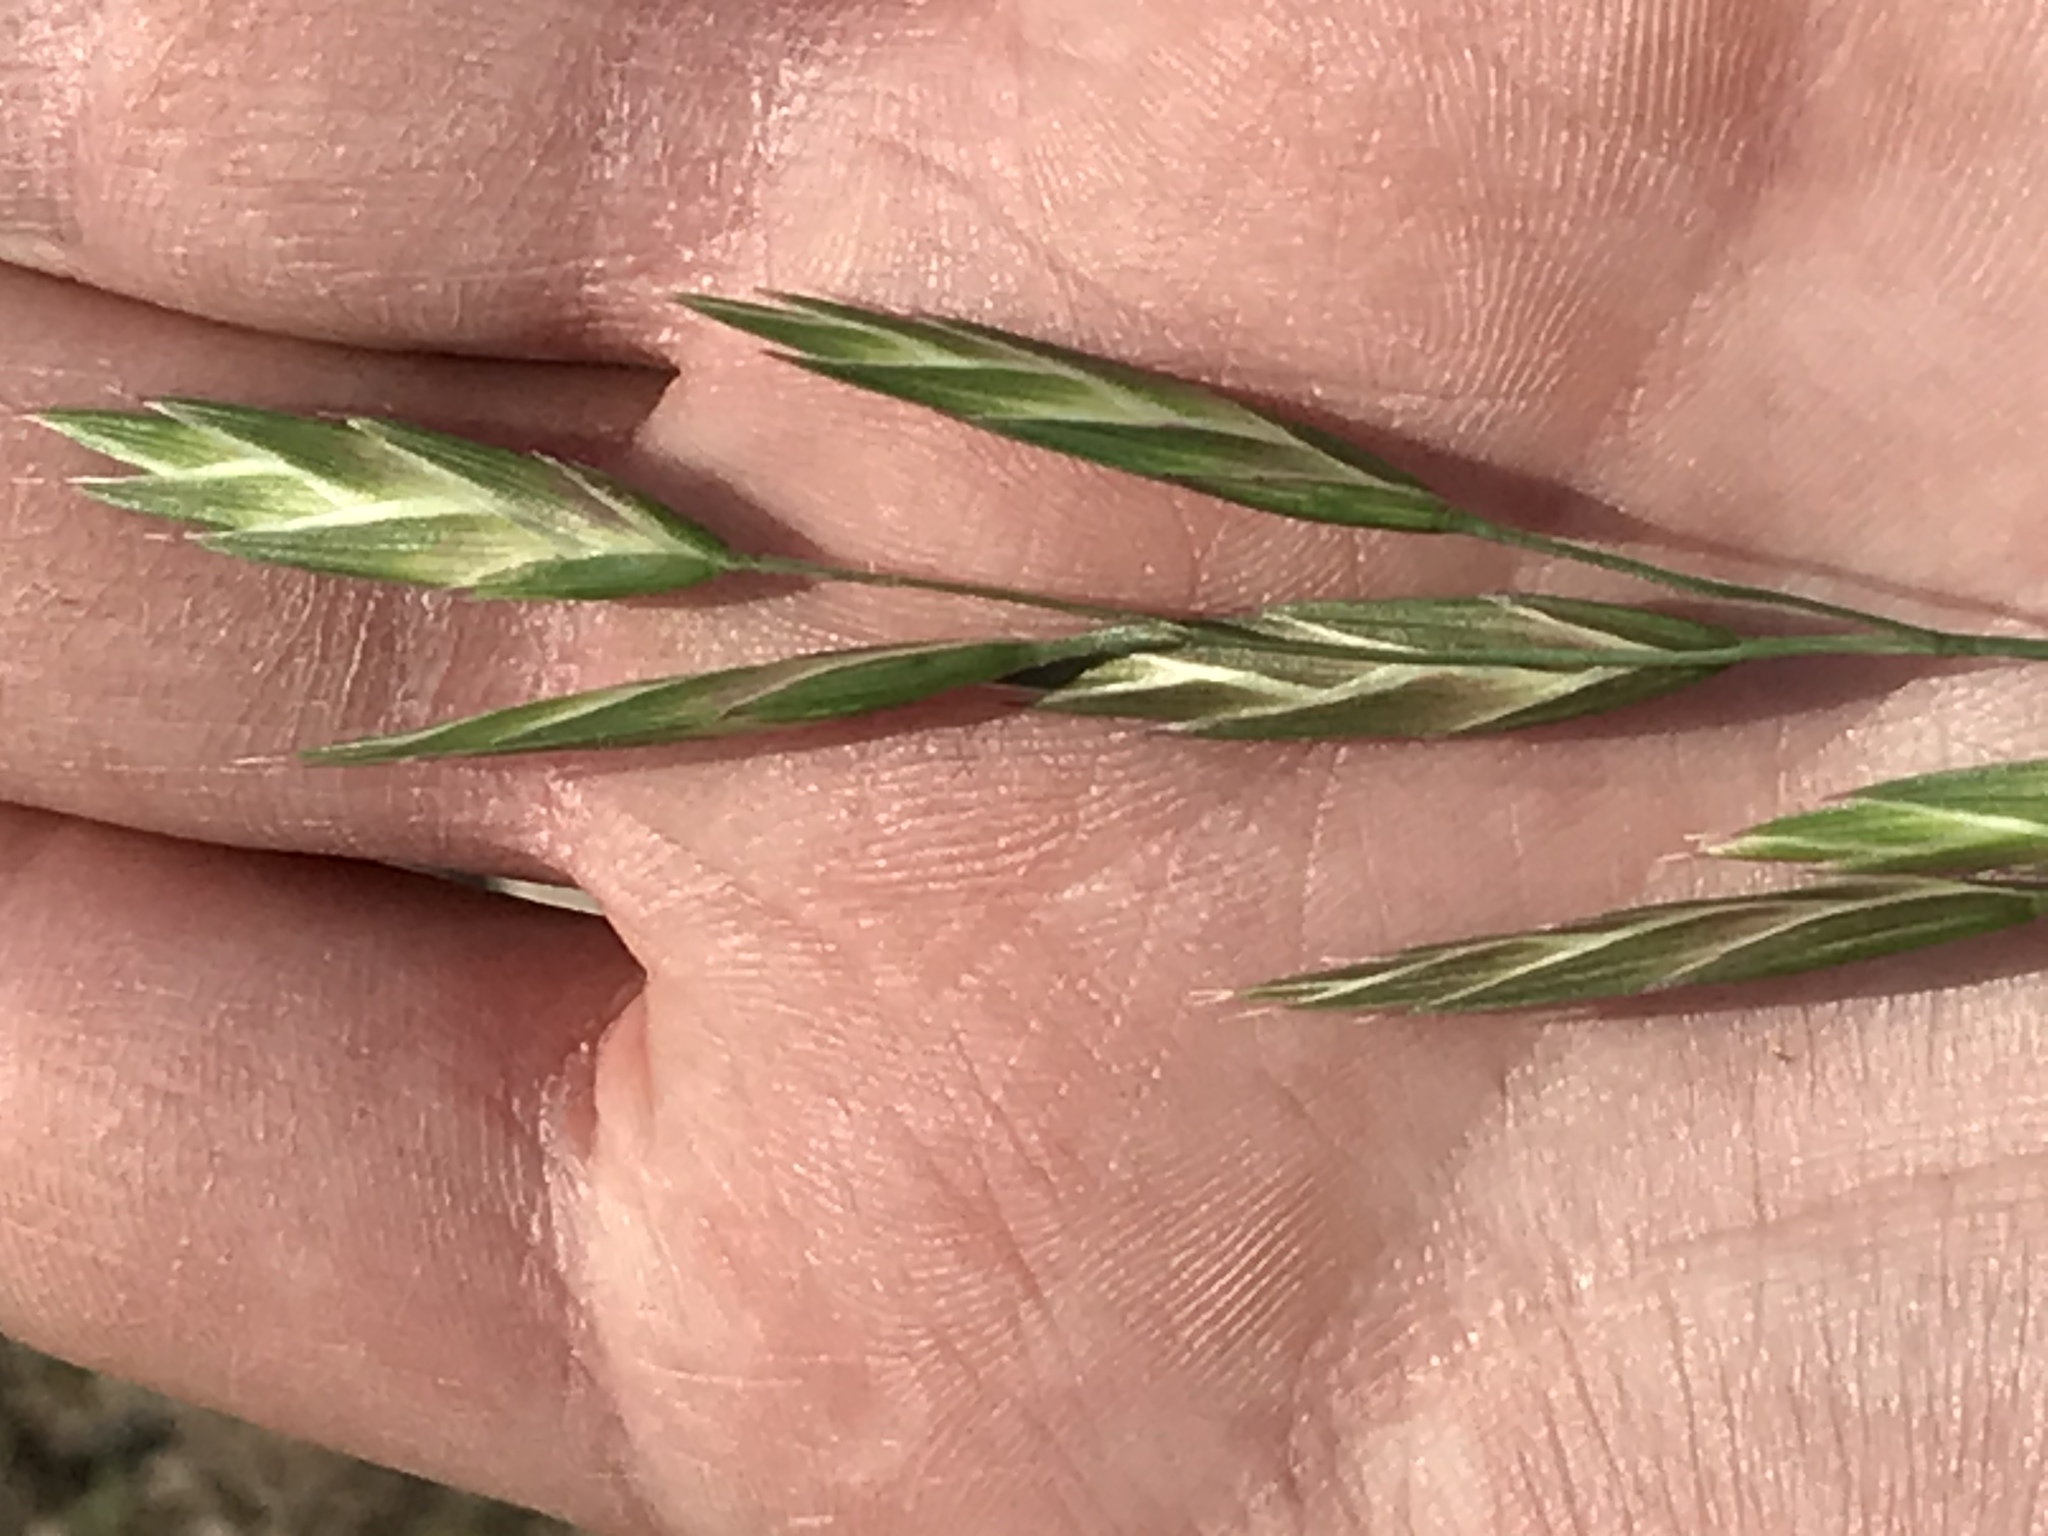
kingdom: Plantae
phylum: Tracheophyta
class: Liliopsida
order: Poales
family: Poaceae
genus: Bromus
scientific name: Bromus catharticus
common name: Rescuegrass
